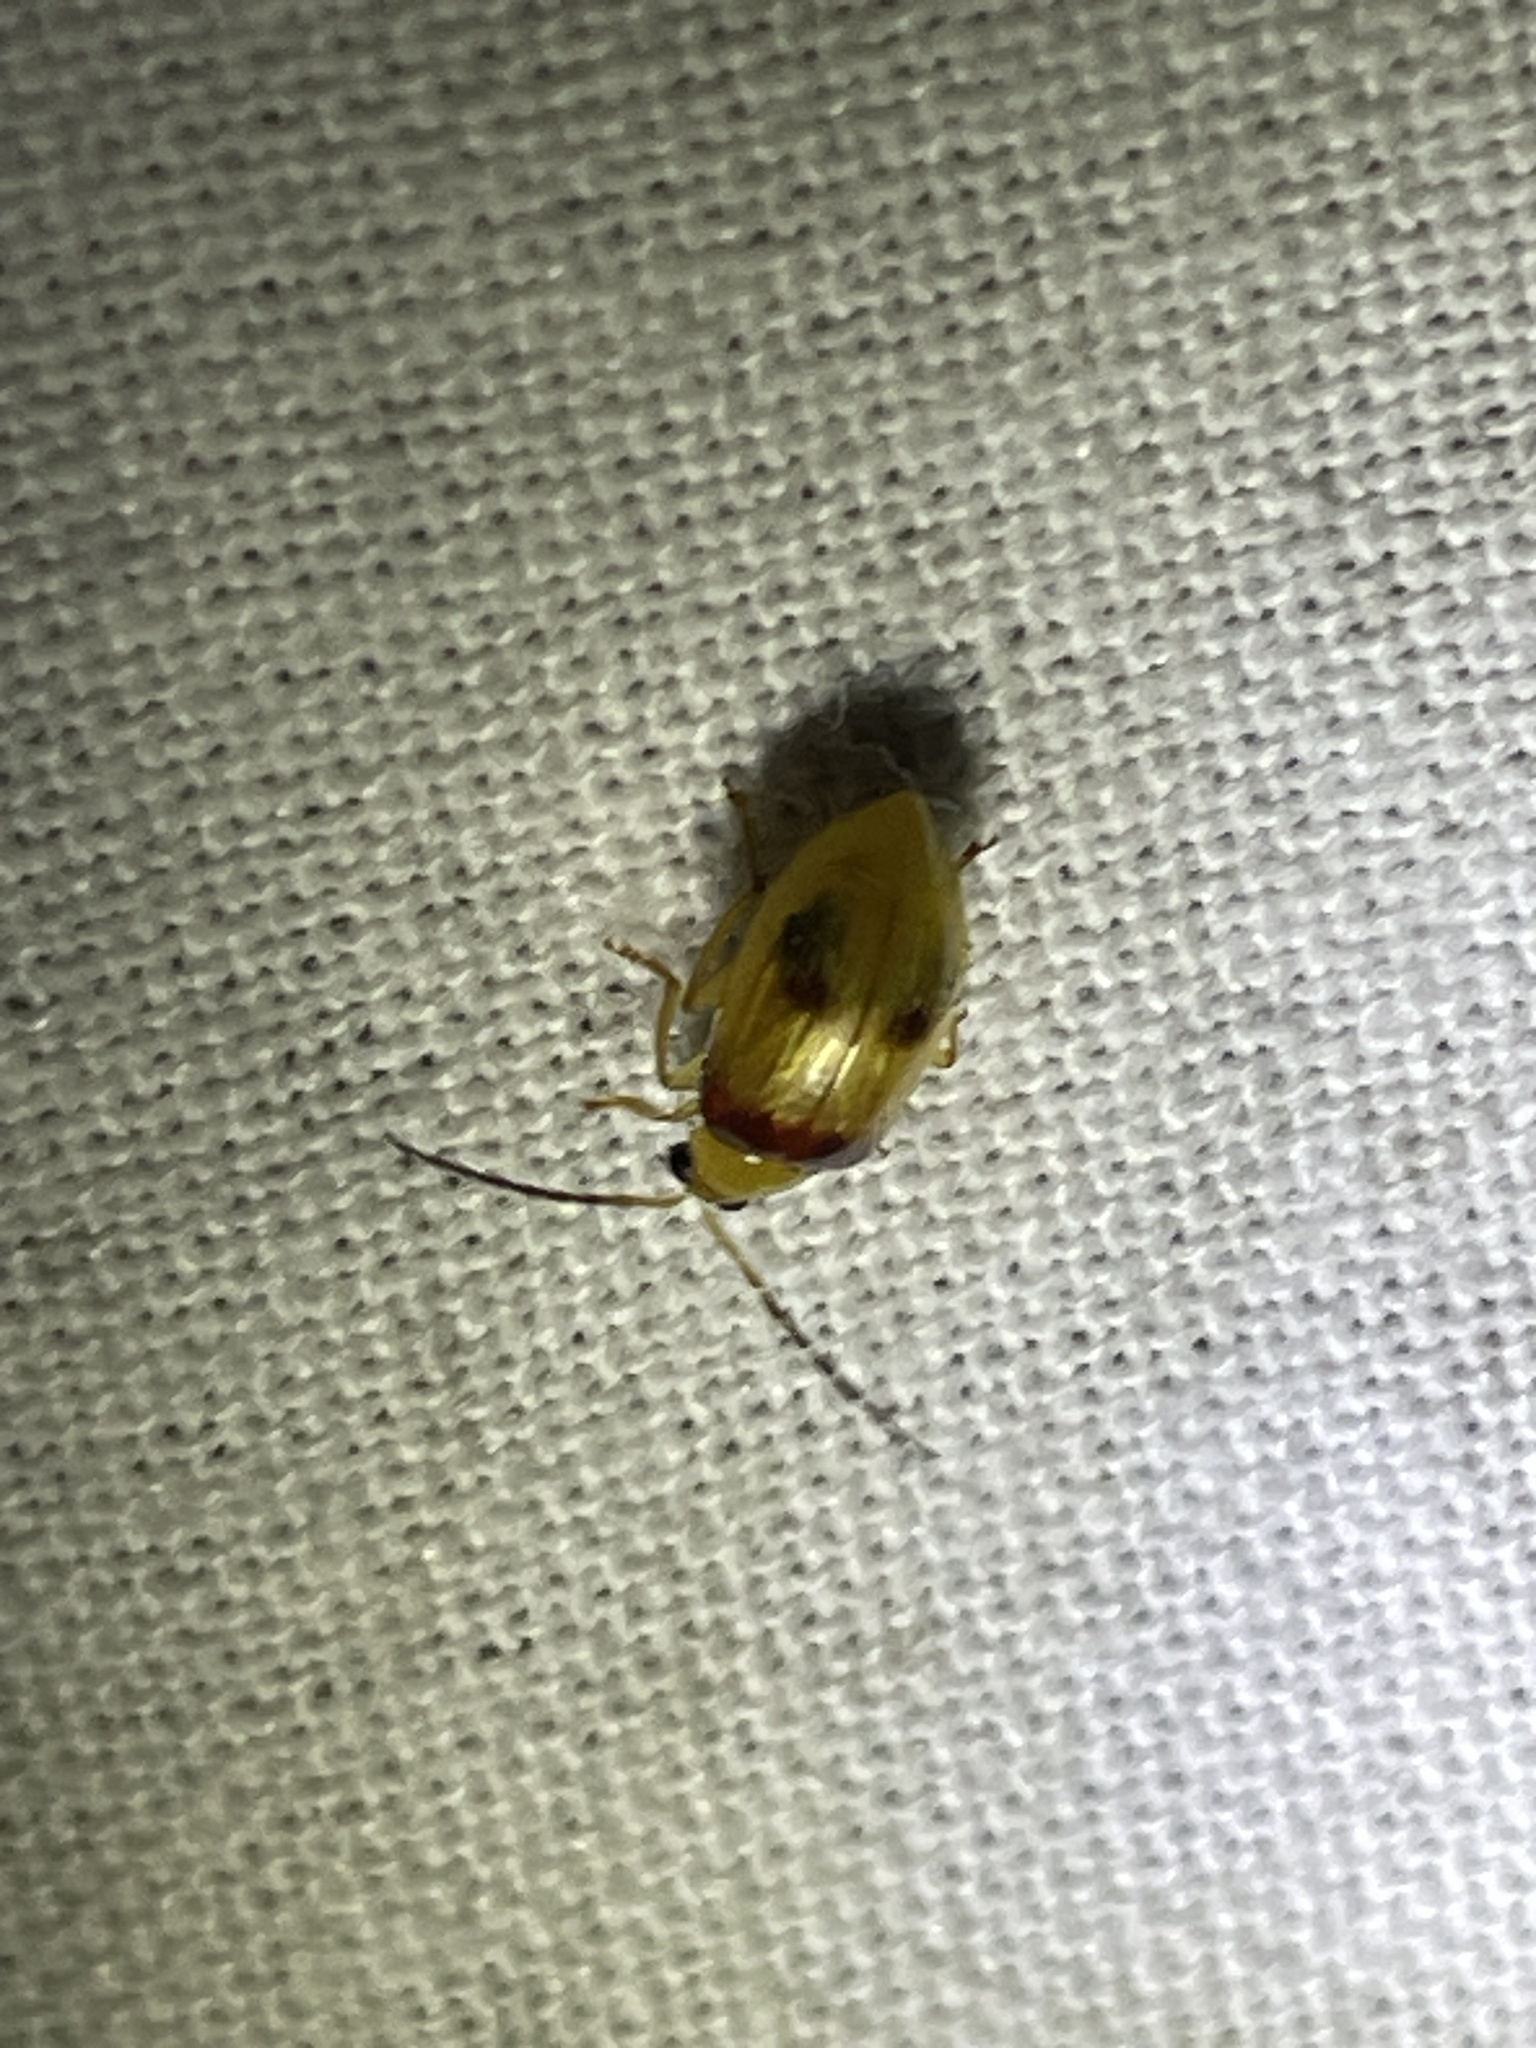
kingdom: Animalia
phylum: Arthropoda
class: Insecta
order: Coleoptera
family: Chrysomelidae
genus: Monolepta
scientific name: Monolepta
